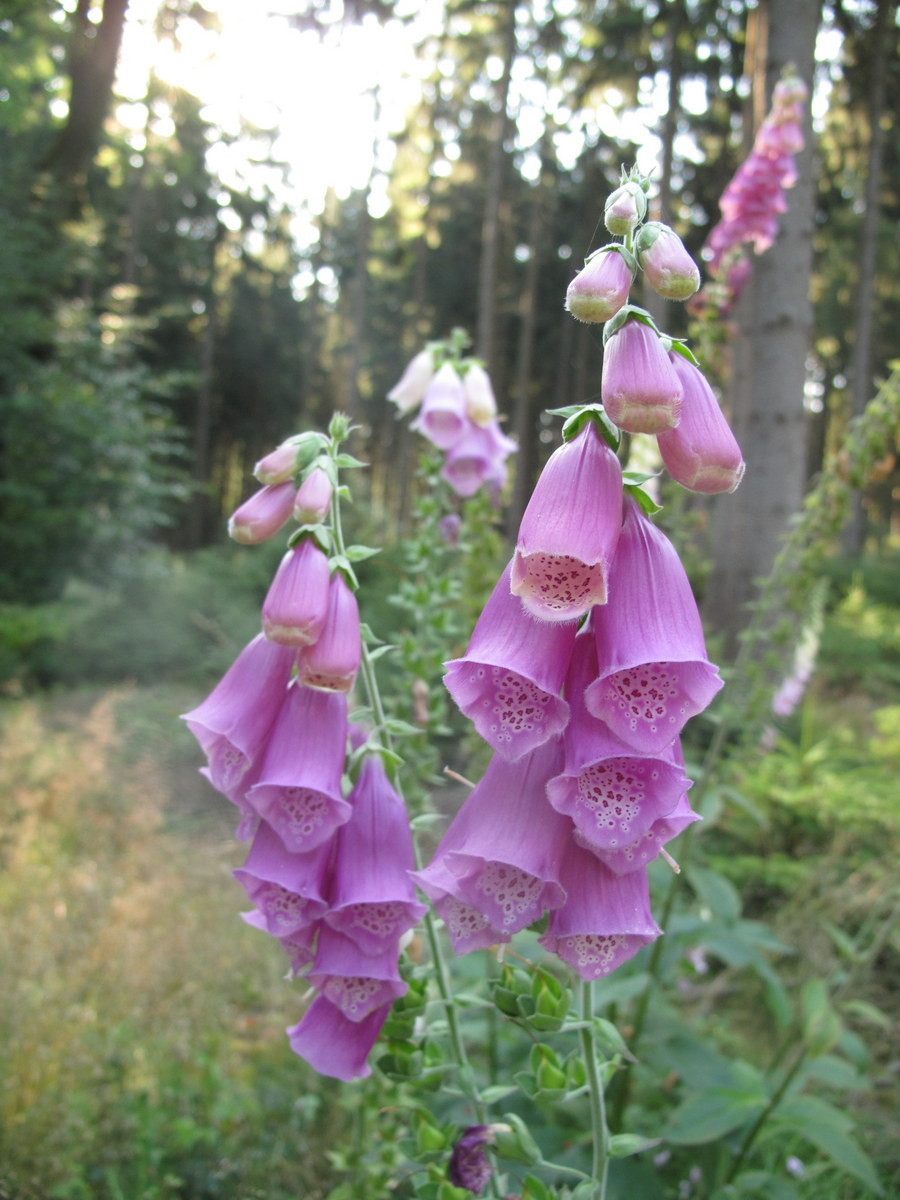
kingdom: Plantae
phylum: Tracheophyta
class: Magnoliopsida
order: Lamiales
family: Plantaginaceae
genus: Digitalis
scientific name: Digitalis purpurea
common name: Foxglove
